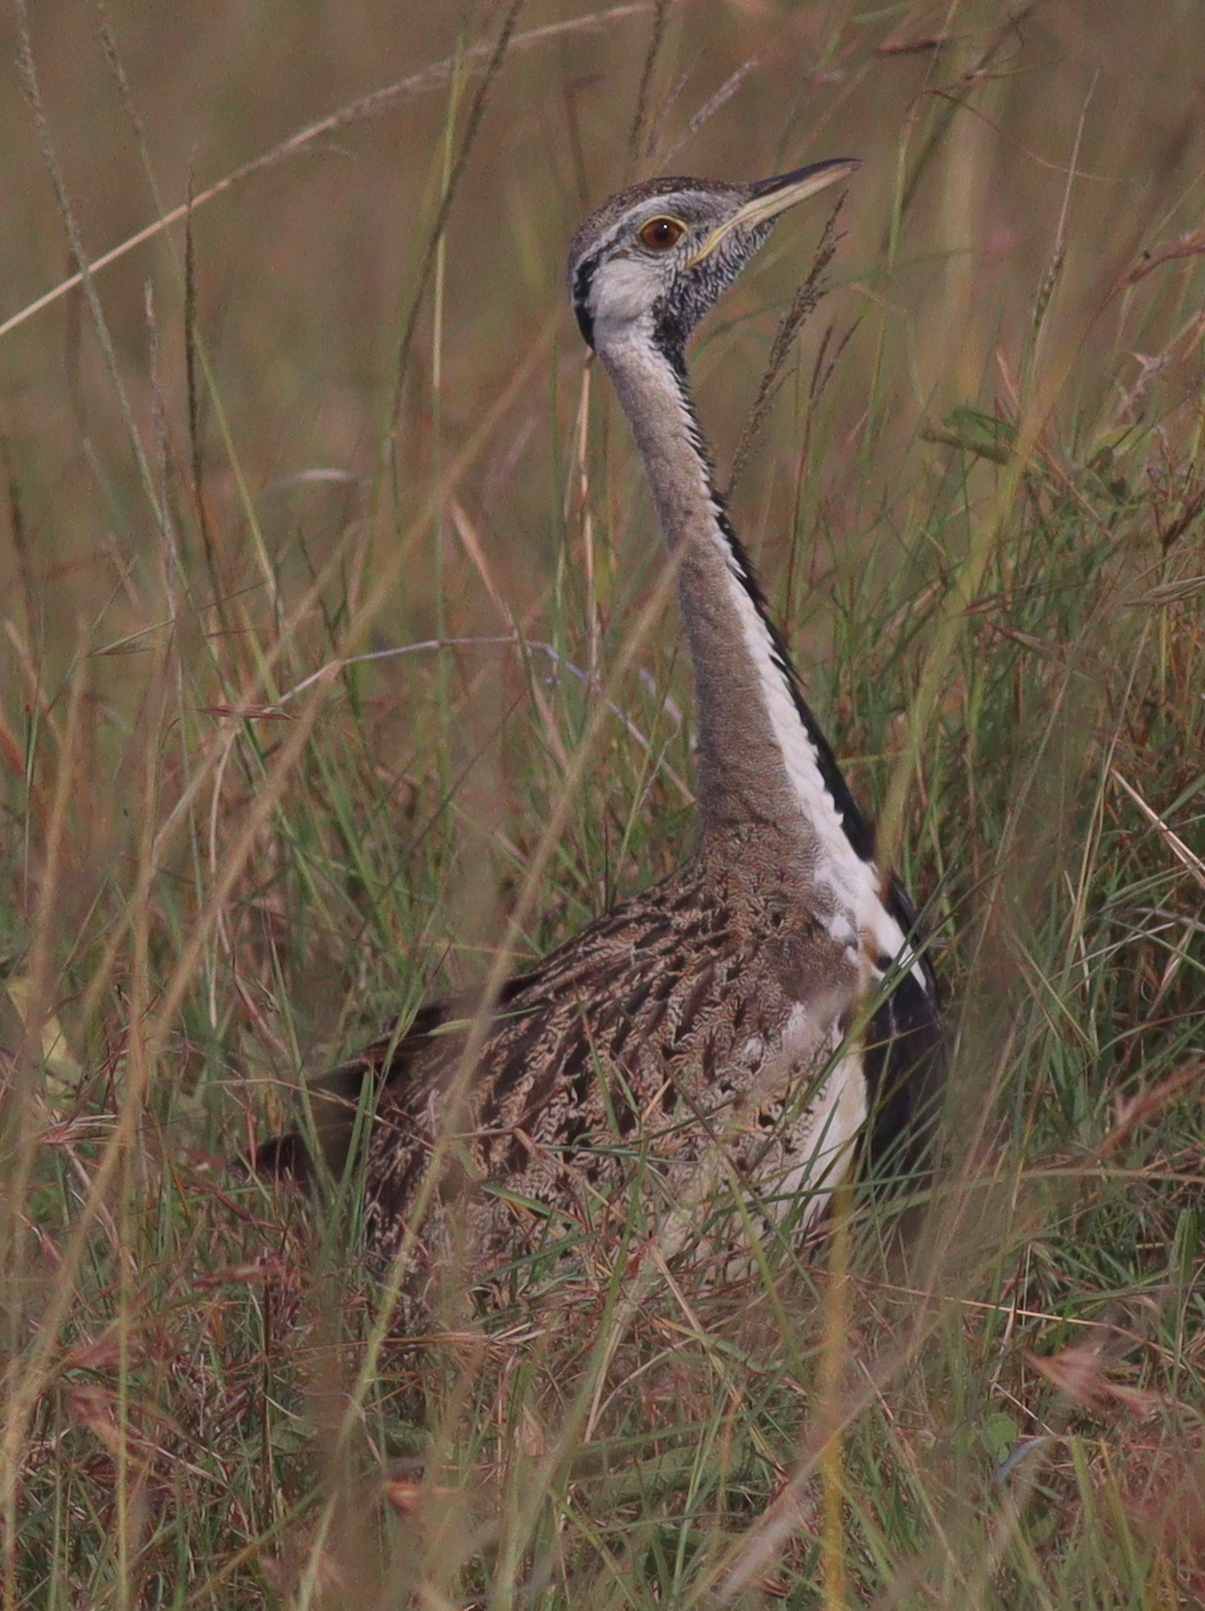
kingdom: Animalia
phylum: Chordata
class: Aves
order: Otidiformes
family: Otididae
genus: Lissotis
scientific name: Lissotis melanogaster
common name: Black-bellied bustard
